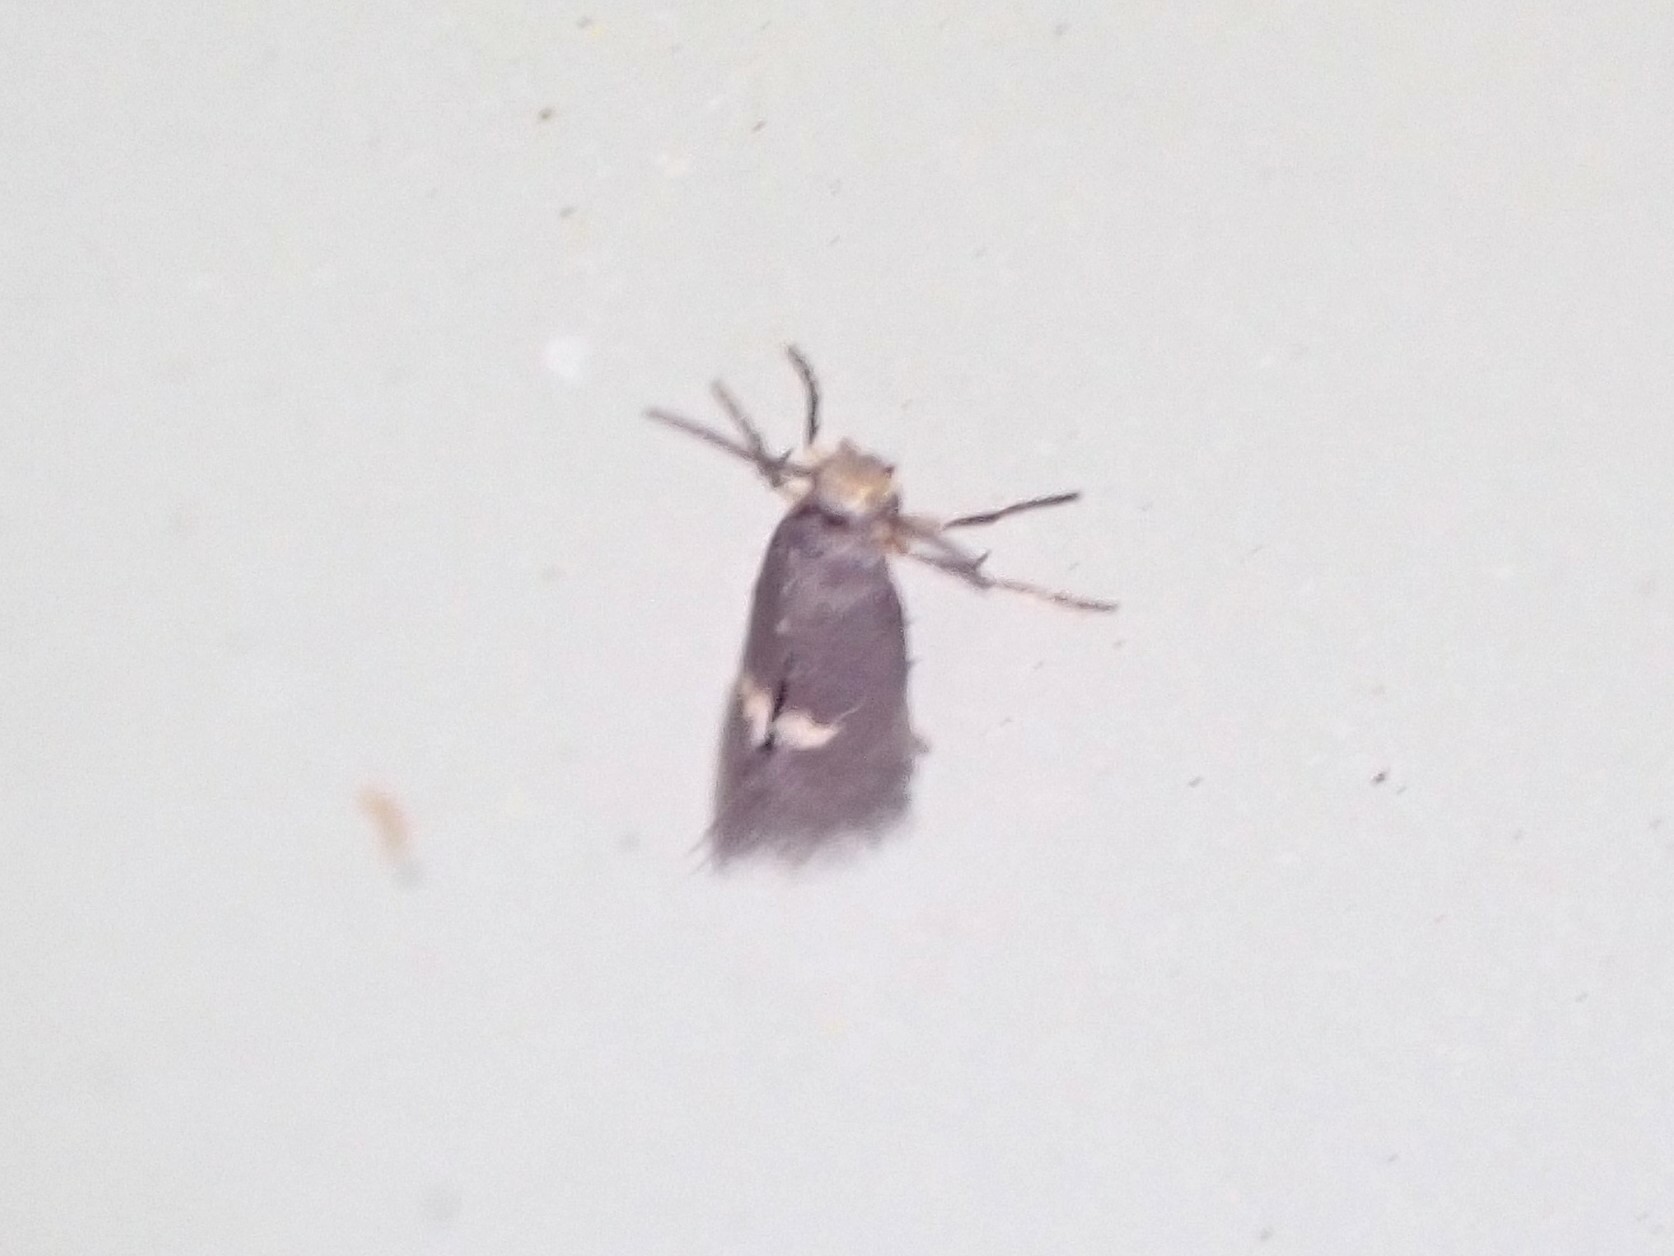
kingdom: Animalia
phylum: Arthropoda
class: Insecta
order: Lepidoptera
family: Heliozelidae
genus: Heliozela
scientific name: Heliozela catoptrias
